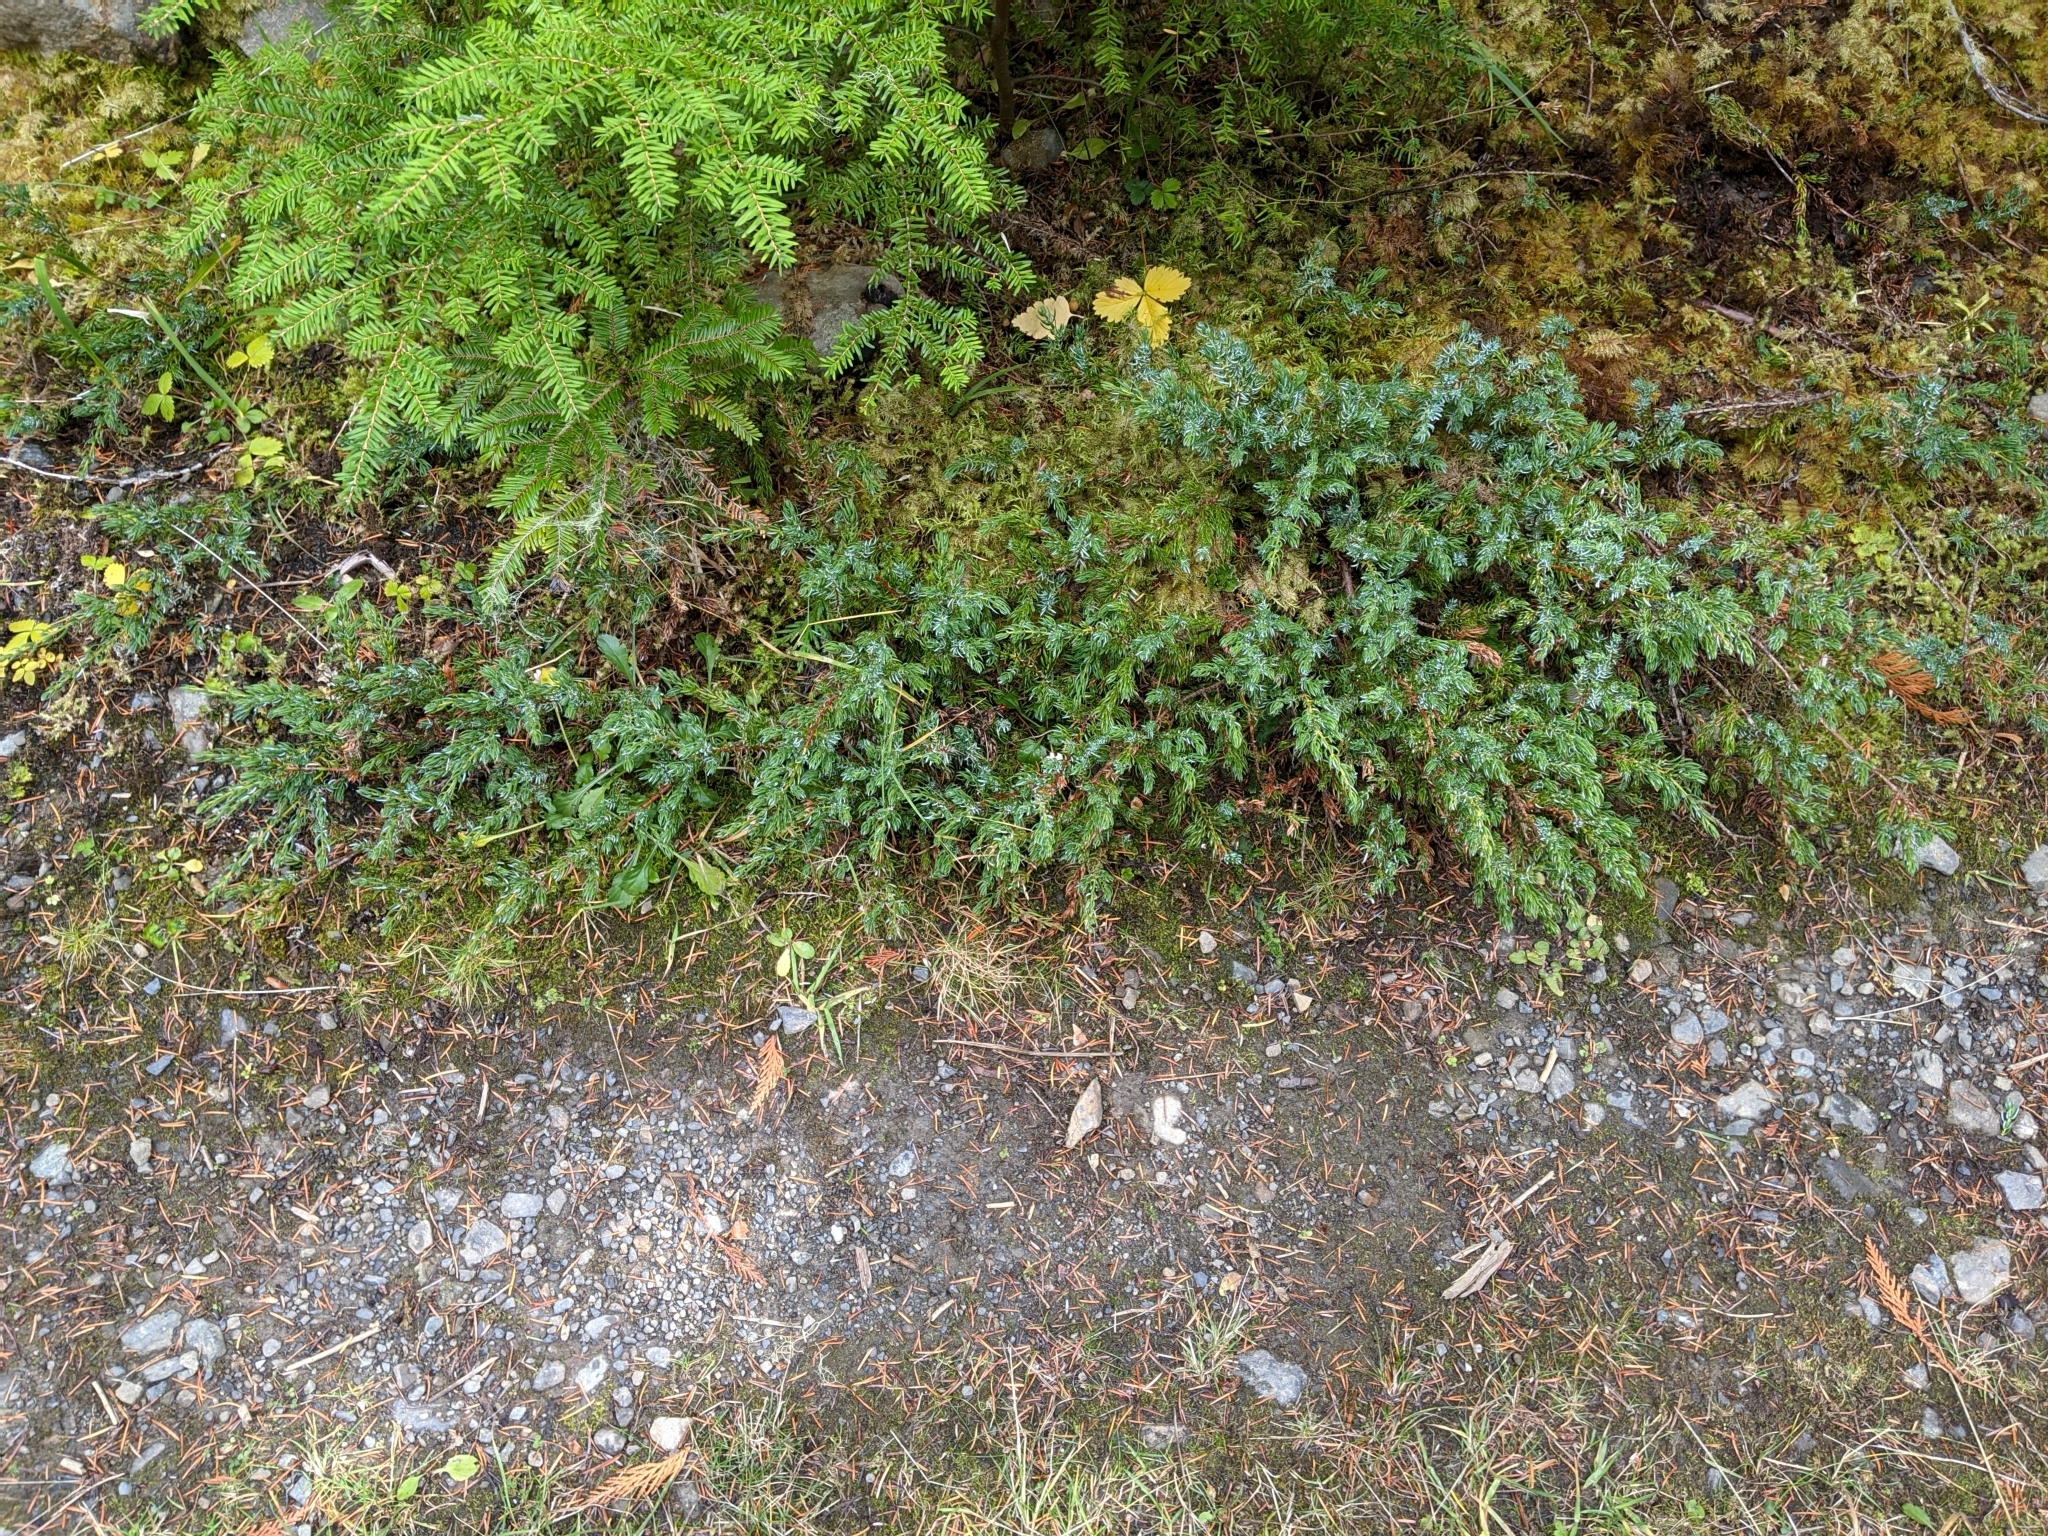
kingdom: Plantae
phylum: Tracheophyta
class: Pinopsida
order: Pinales
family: Cupressaceae
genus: Juniperus
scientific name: Juniperus communis
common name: Common juniper
